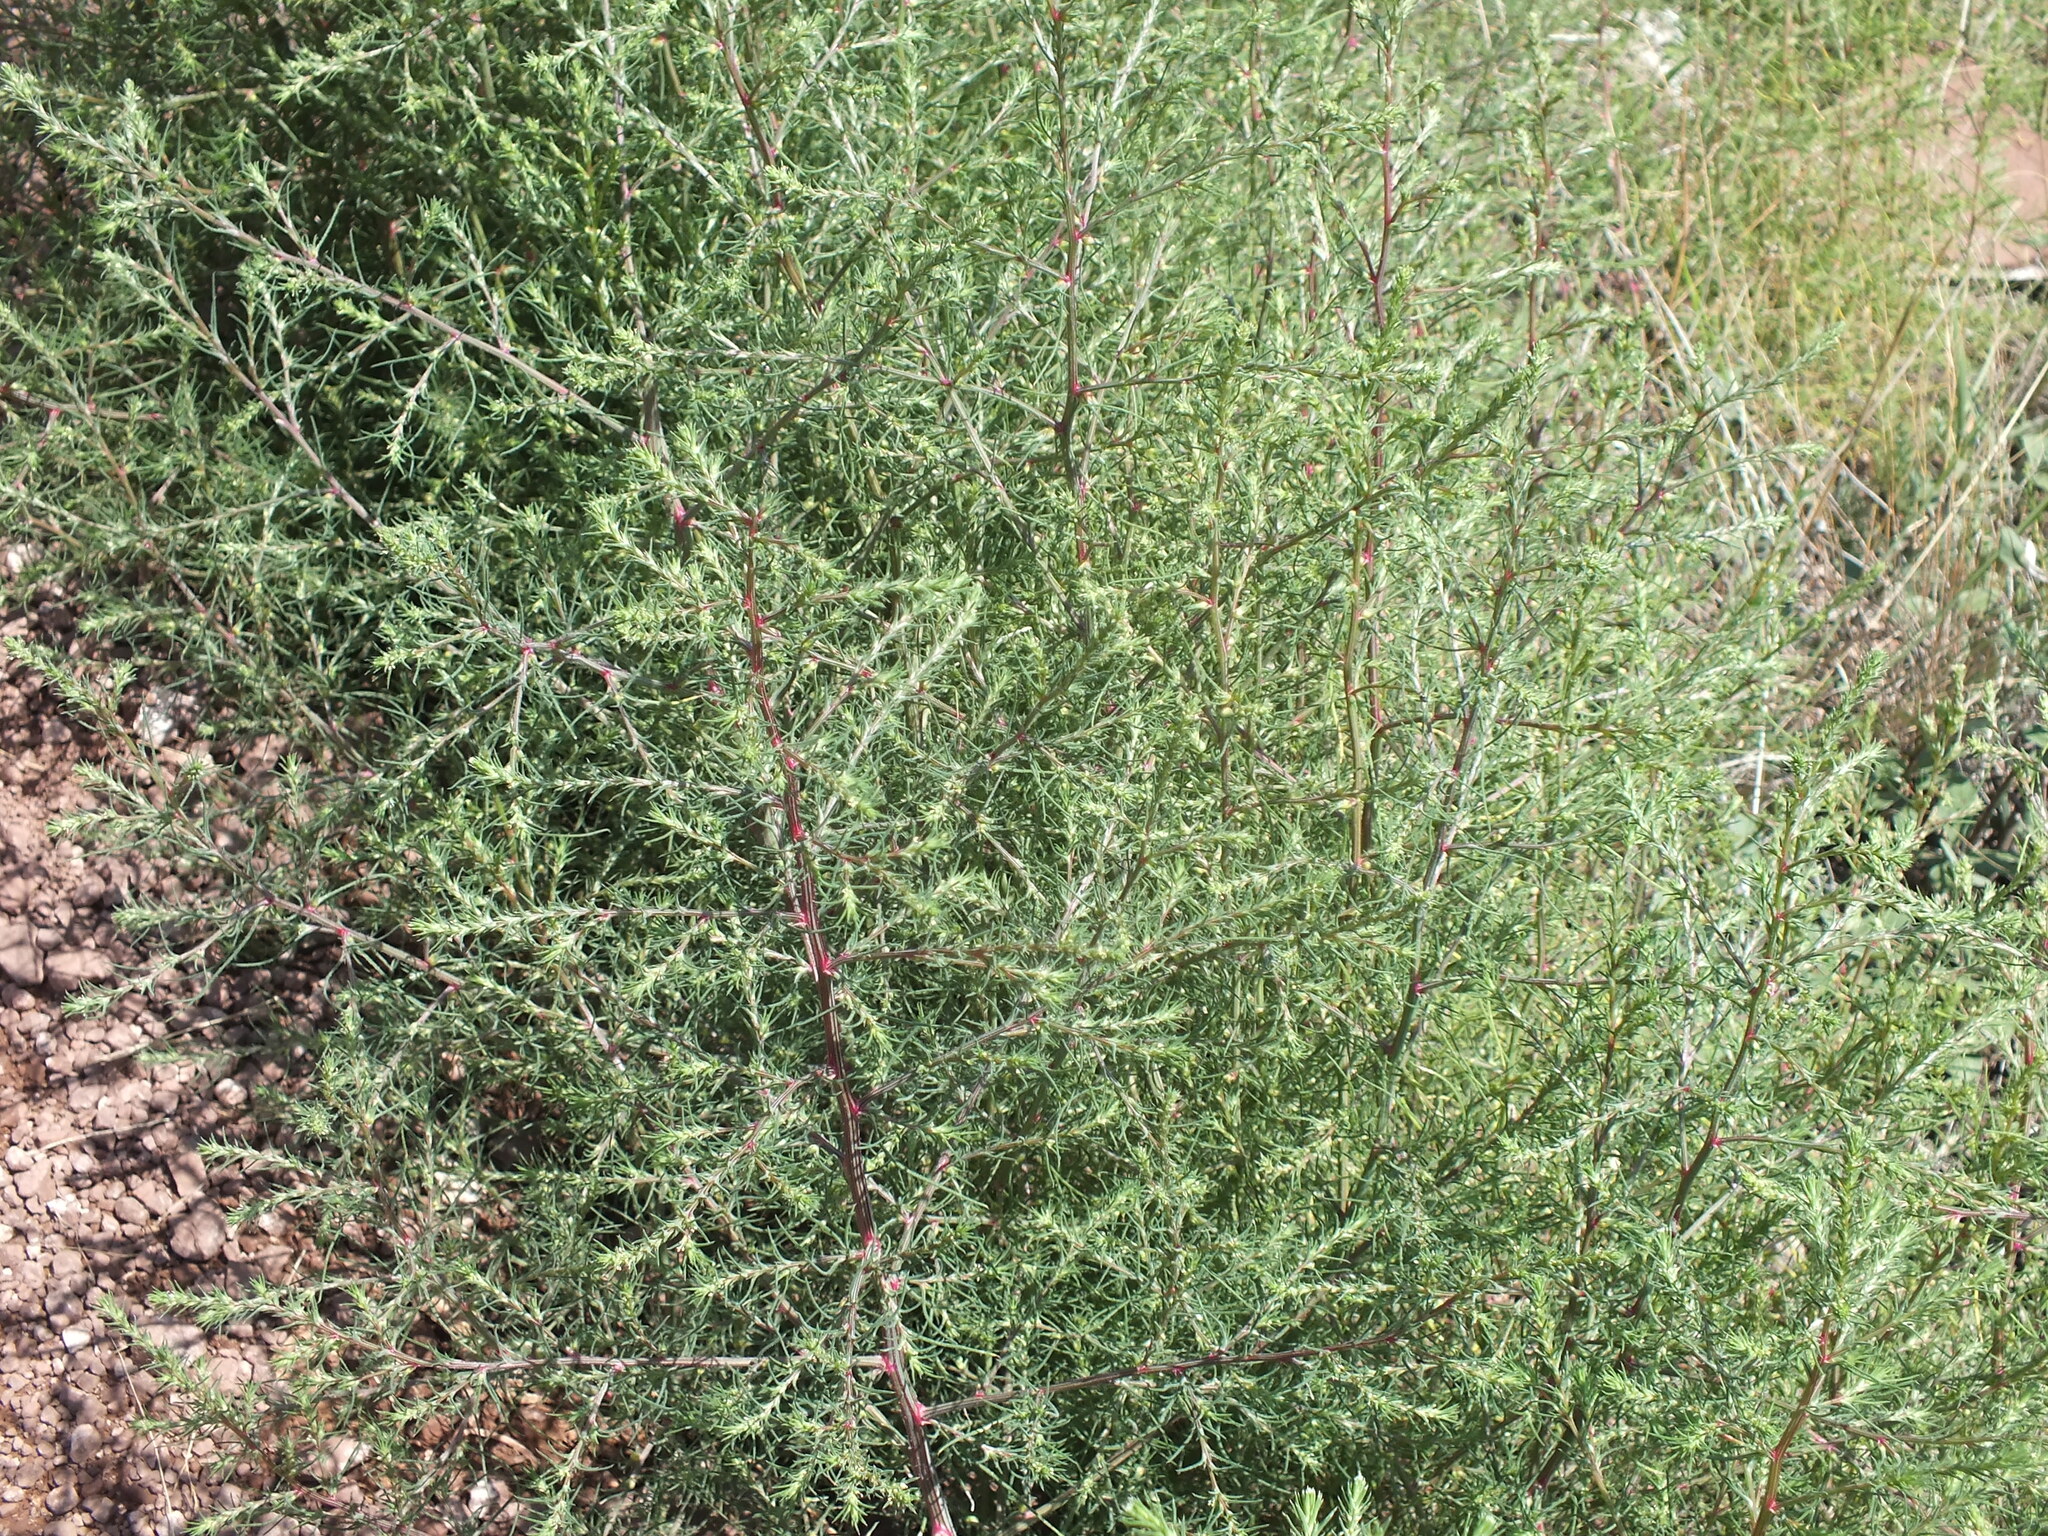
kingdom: Plantae
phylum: Tracheophyta
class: Magnoliopsida
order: Caryophyllales
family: Amaranthaceae
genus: Salsola
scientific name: Salsola collina
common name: Tumbleweed
